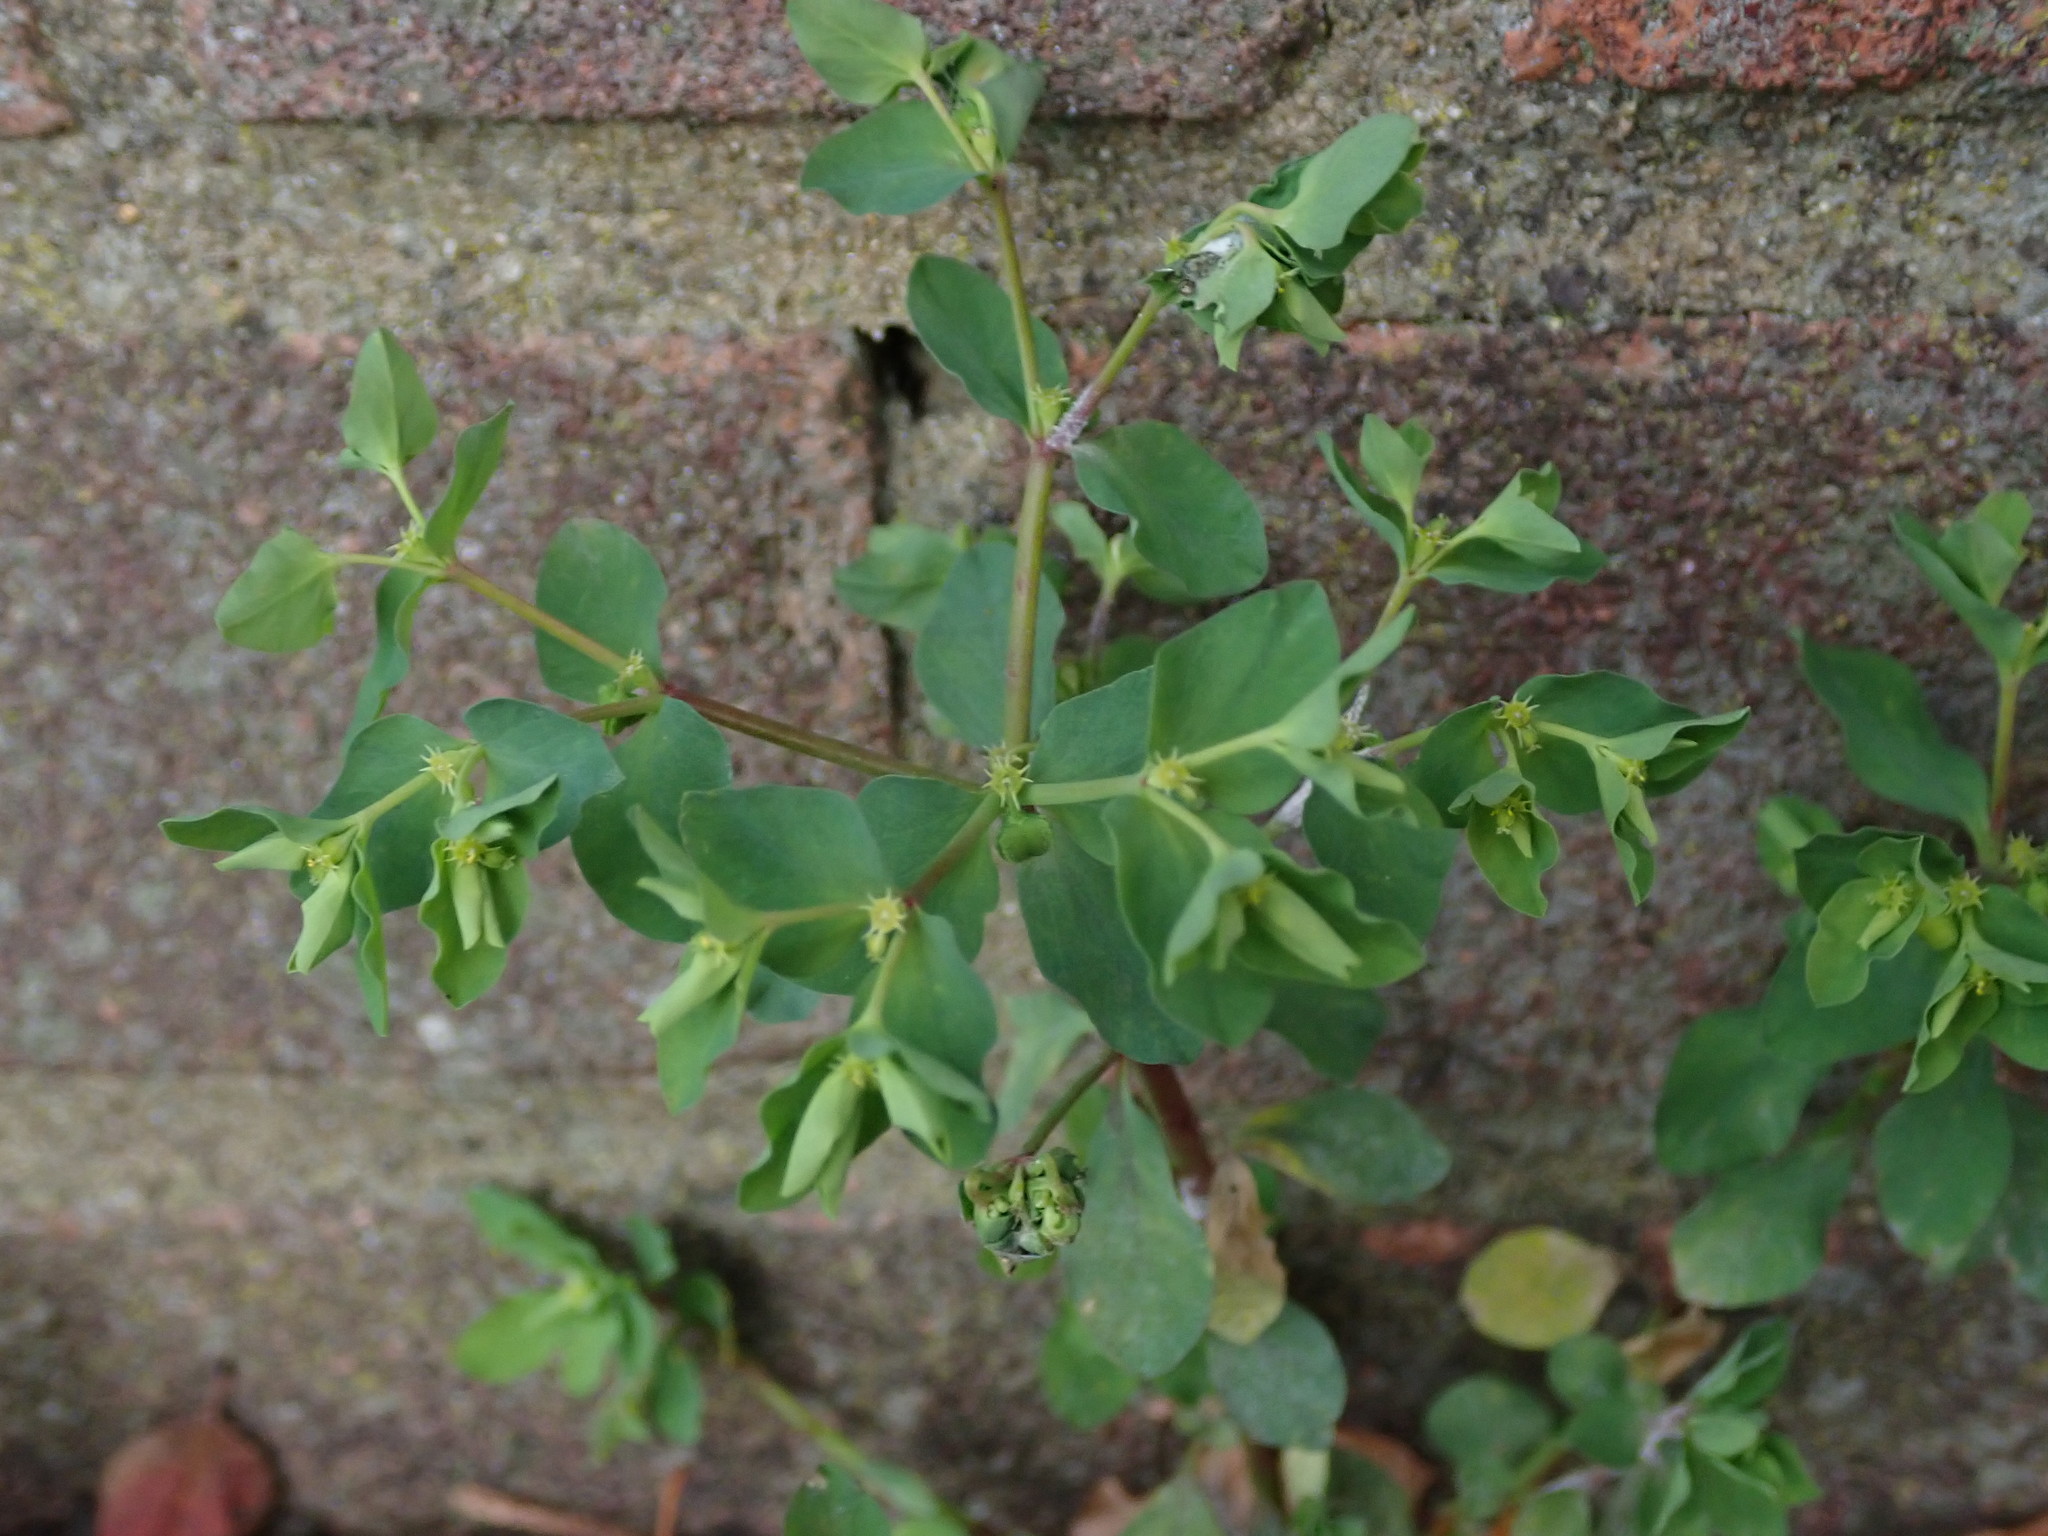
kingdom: Plantae
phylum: Tracheophyta
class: Magnoliopsida
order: Malpighiales
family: Euphorbiaceae
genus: Euphorbia
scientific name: Euphorbia peplus
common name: Petty spurge
